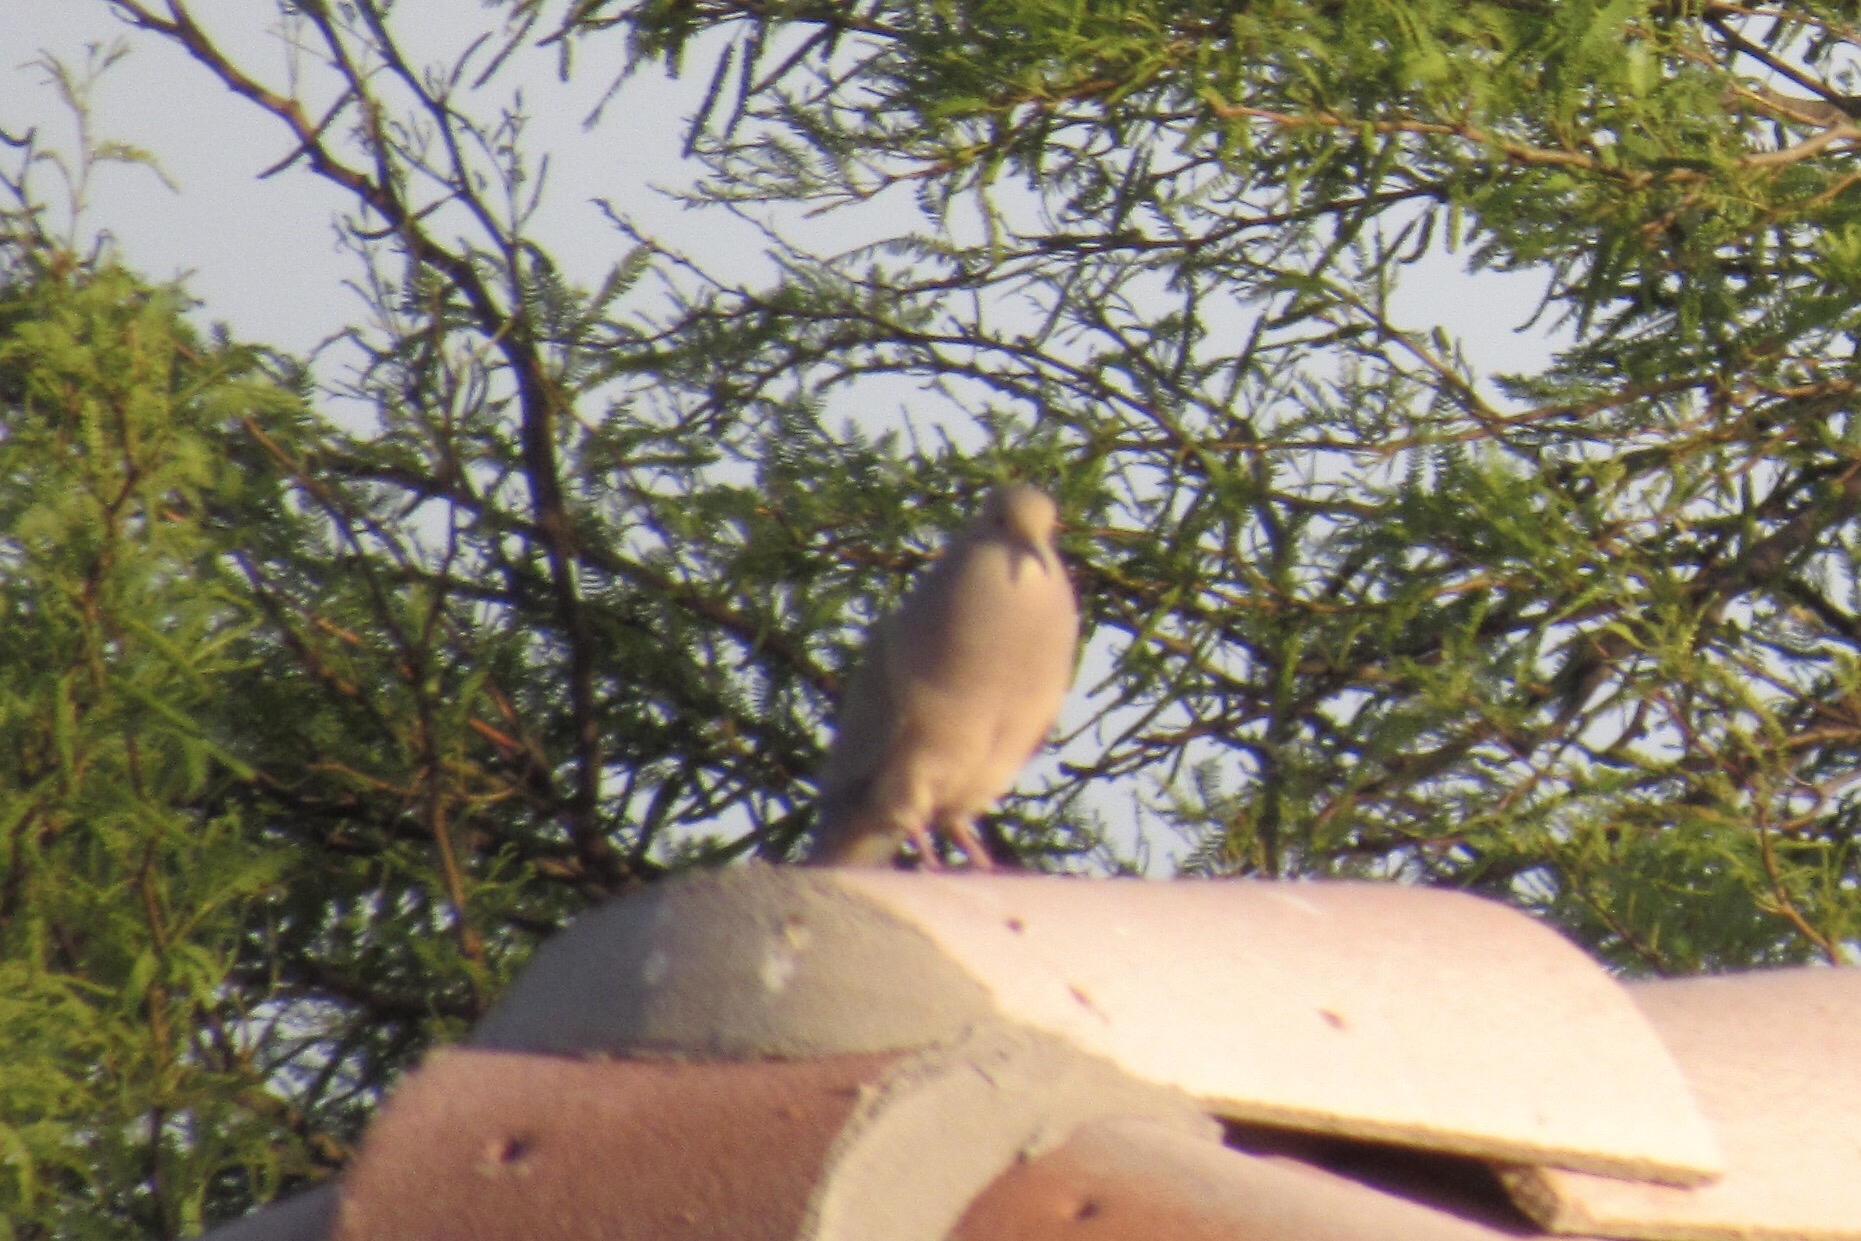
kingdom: Animalia
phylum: Chordata
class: Aves
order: Columbiformes
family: Columbidae
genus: Zenaida
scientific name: Zenaida macroura
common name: Mourning dove
